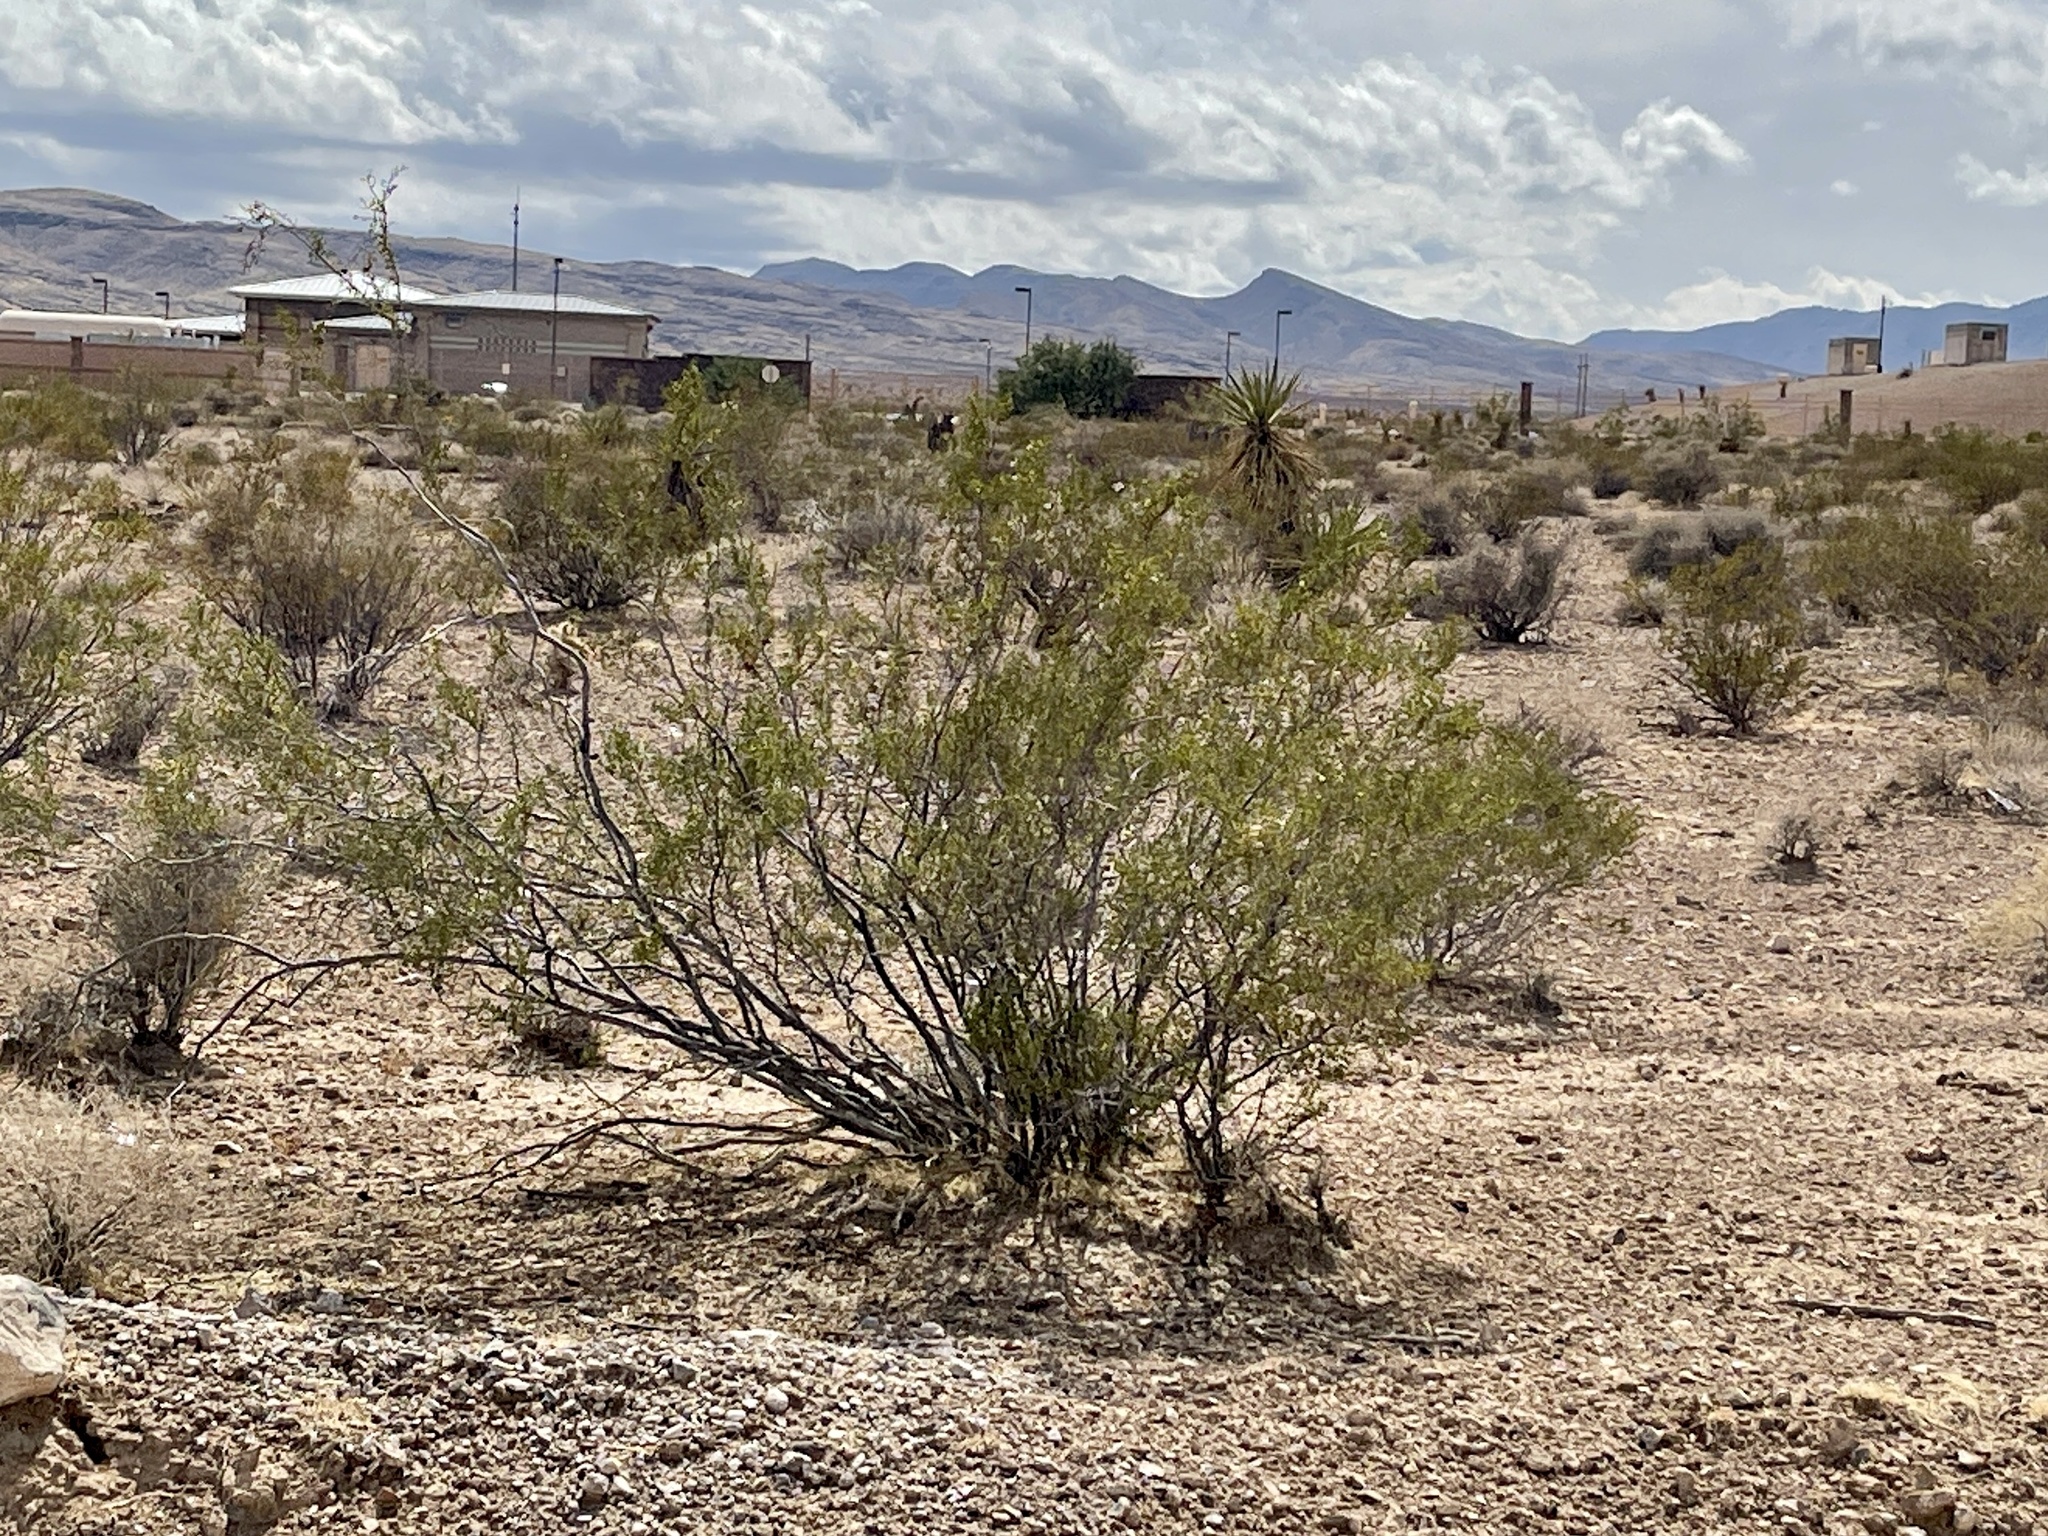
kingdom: Plantae
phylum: Tracheophyta
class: Magnoliopsida
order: Zygophyllales
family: Zygophyllaceae
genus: Larrea
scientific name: Larrea tridentata
